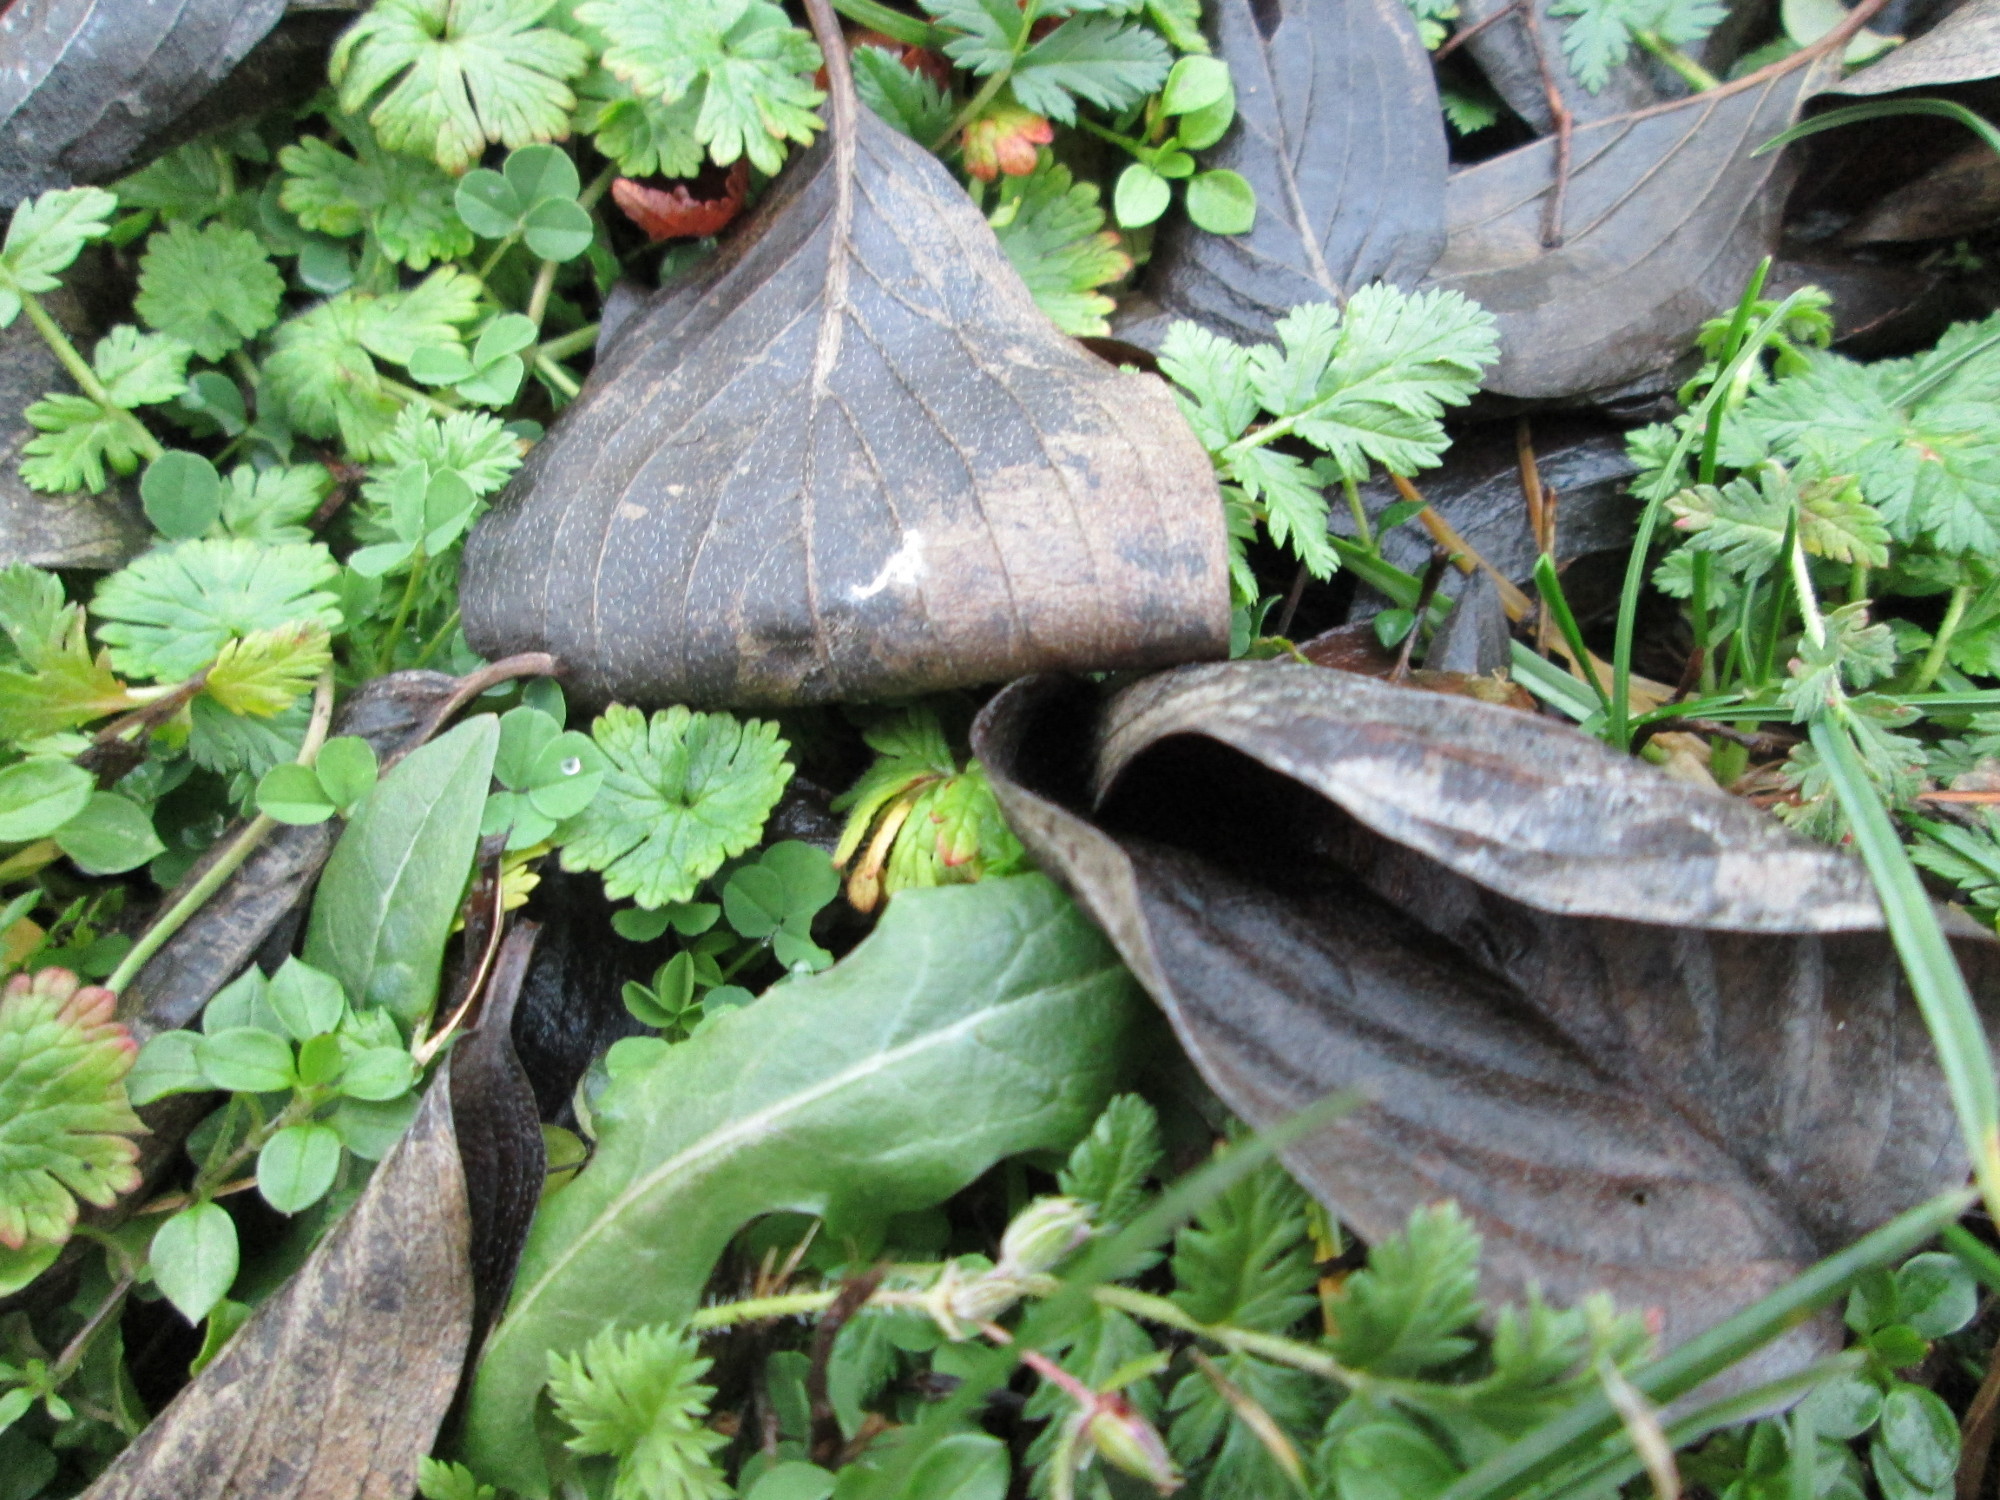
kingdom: Plantae
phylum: Tracheophyta
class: Magnoliopsida
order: Cornales
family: Cornaceae
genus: Cornus
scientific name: Cornus mas
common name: Cornelian-cherry
